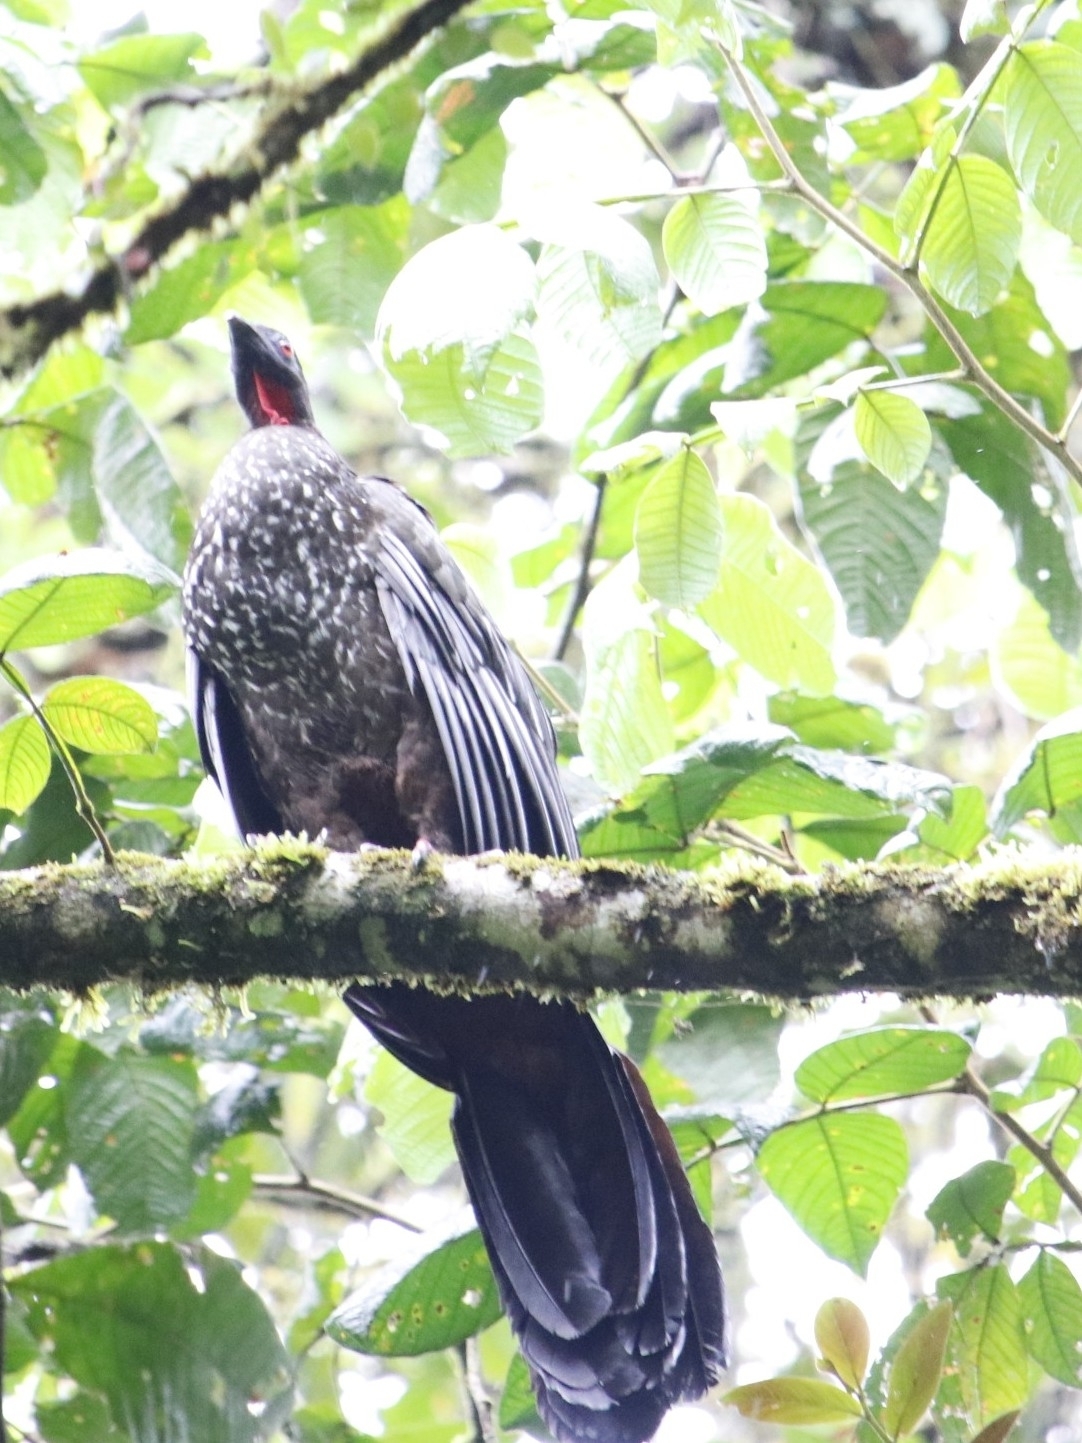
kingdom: Animalia
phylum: Chordata
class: Aves
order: Galliformes
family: Cracidae
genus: Penelope
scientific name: Penelope purpurascens
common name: Crested guan
